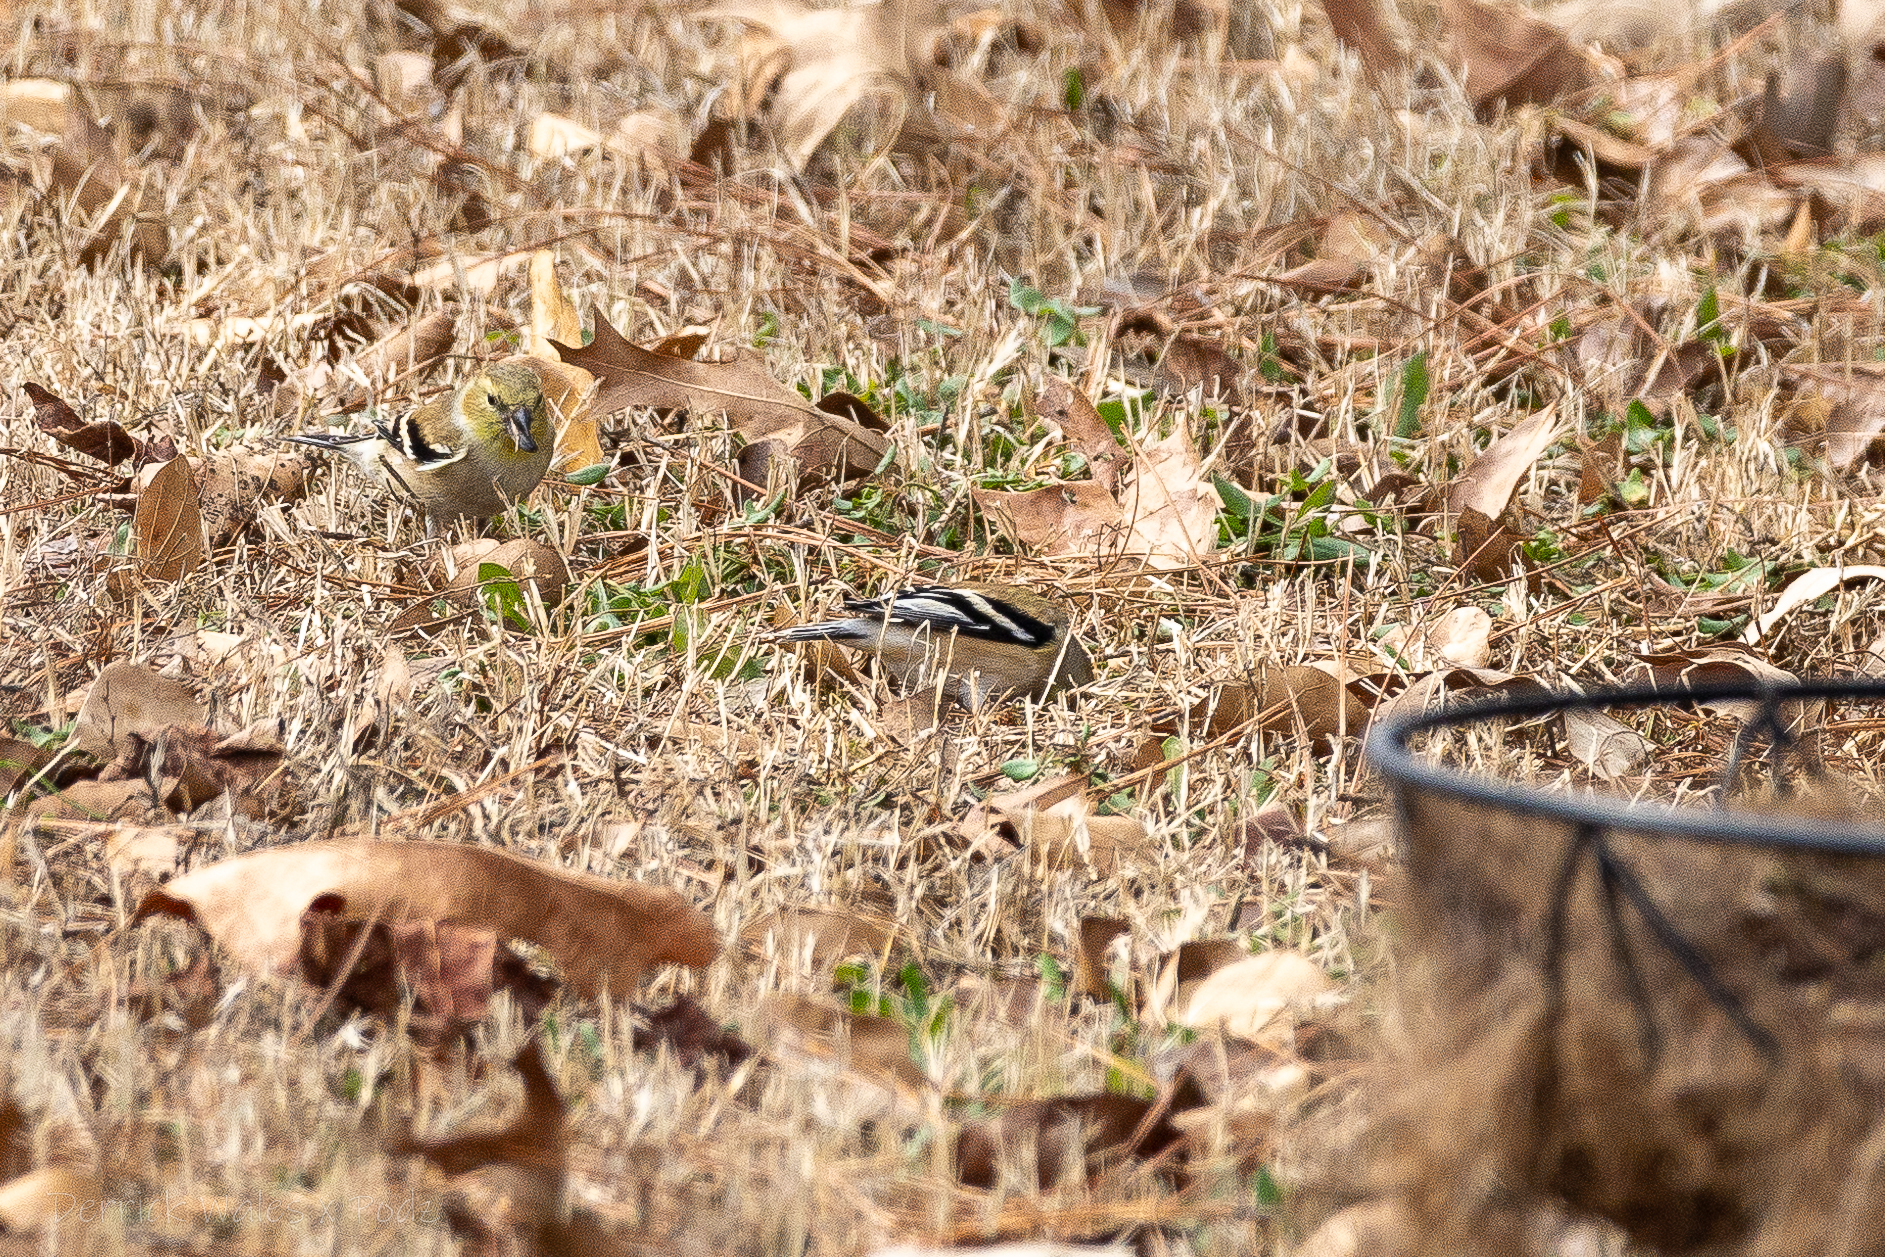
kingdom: Animalia
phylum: Chordata
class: Aves
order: Passeriformes
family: Fringillidae
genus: Spinus
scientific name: Spinus tristis
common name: American goldfinch
